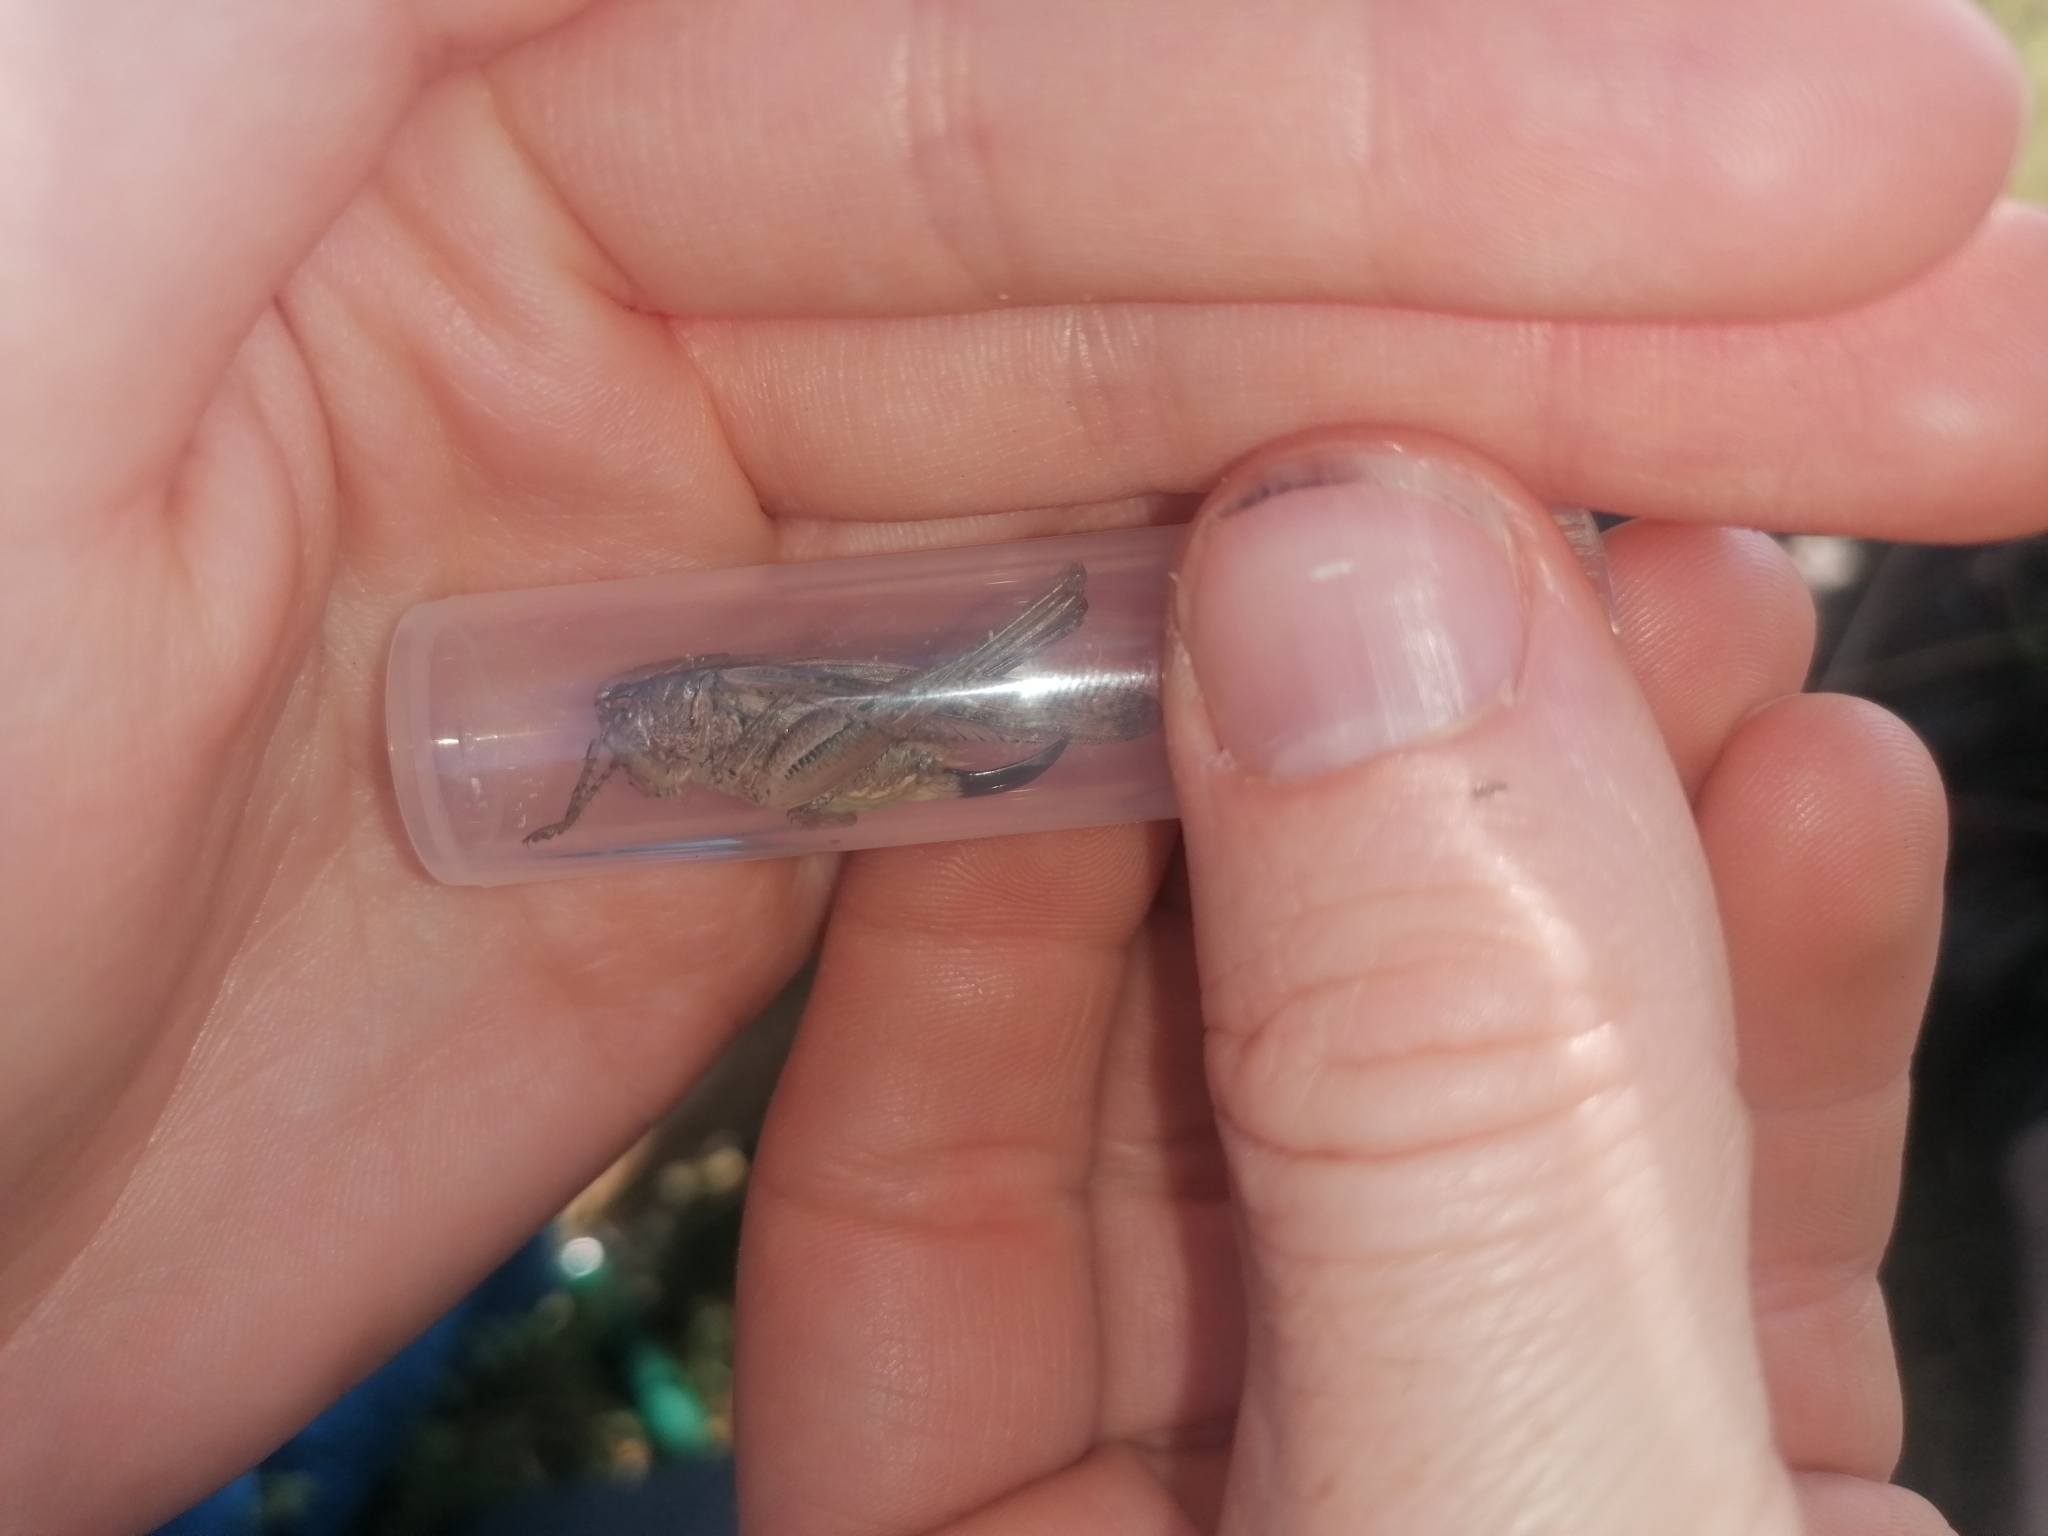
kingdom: Animalia
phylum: Arthropoda
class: Insecta
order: Orthoptera
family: Tettigoniidae
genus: Platycleis
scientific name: Platycleis grisea
